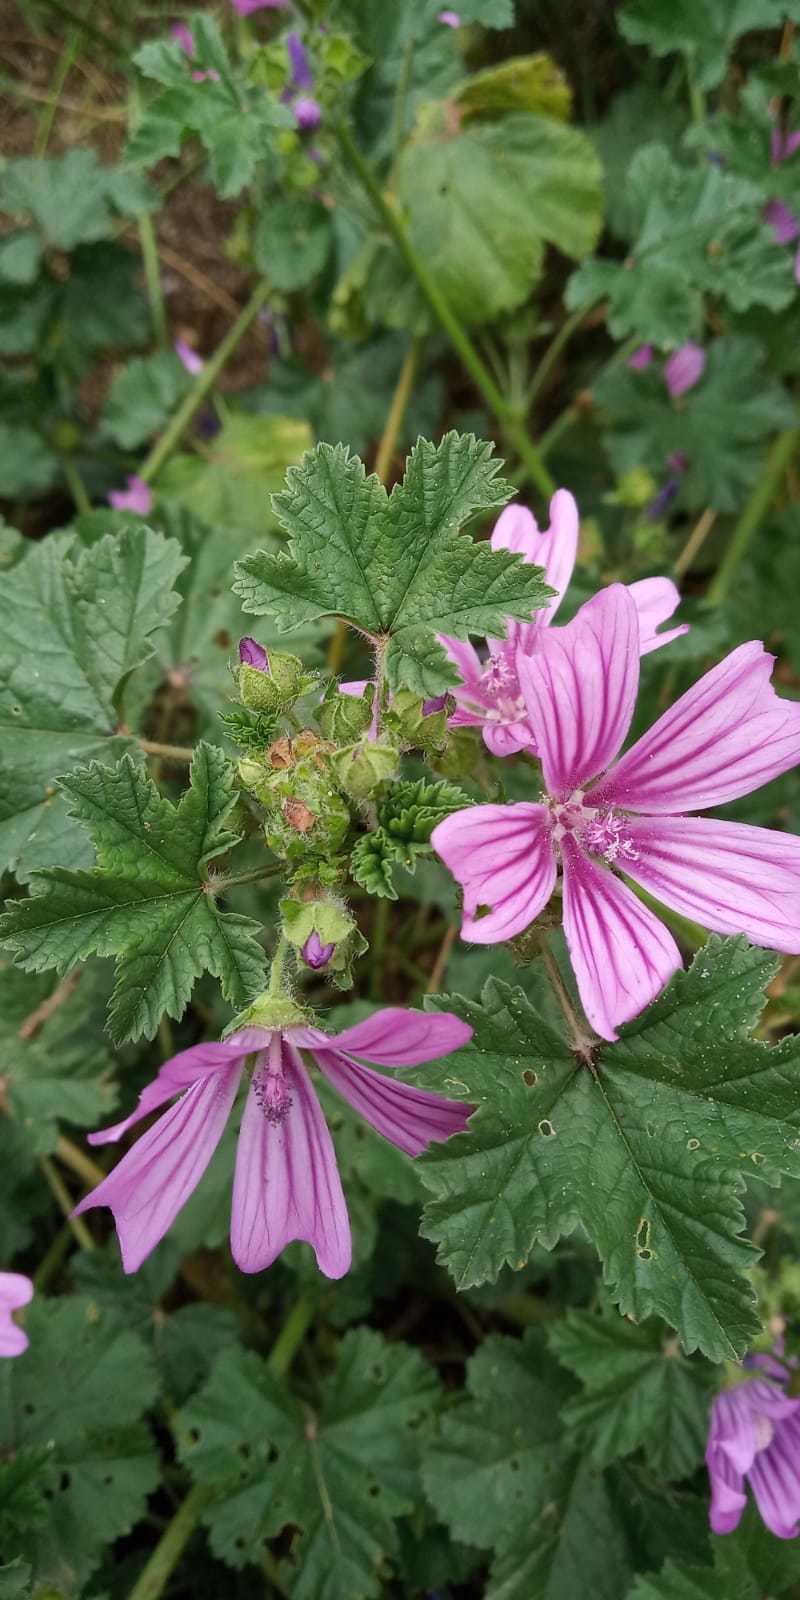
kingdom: Plantae
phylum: Tracheophyta
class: Magnoliopsida
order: Malvales
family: Malvaceae
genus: Malva
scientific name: Malva sylvestris
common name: Common mallow
